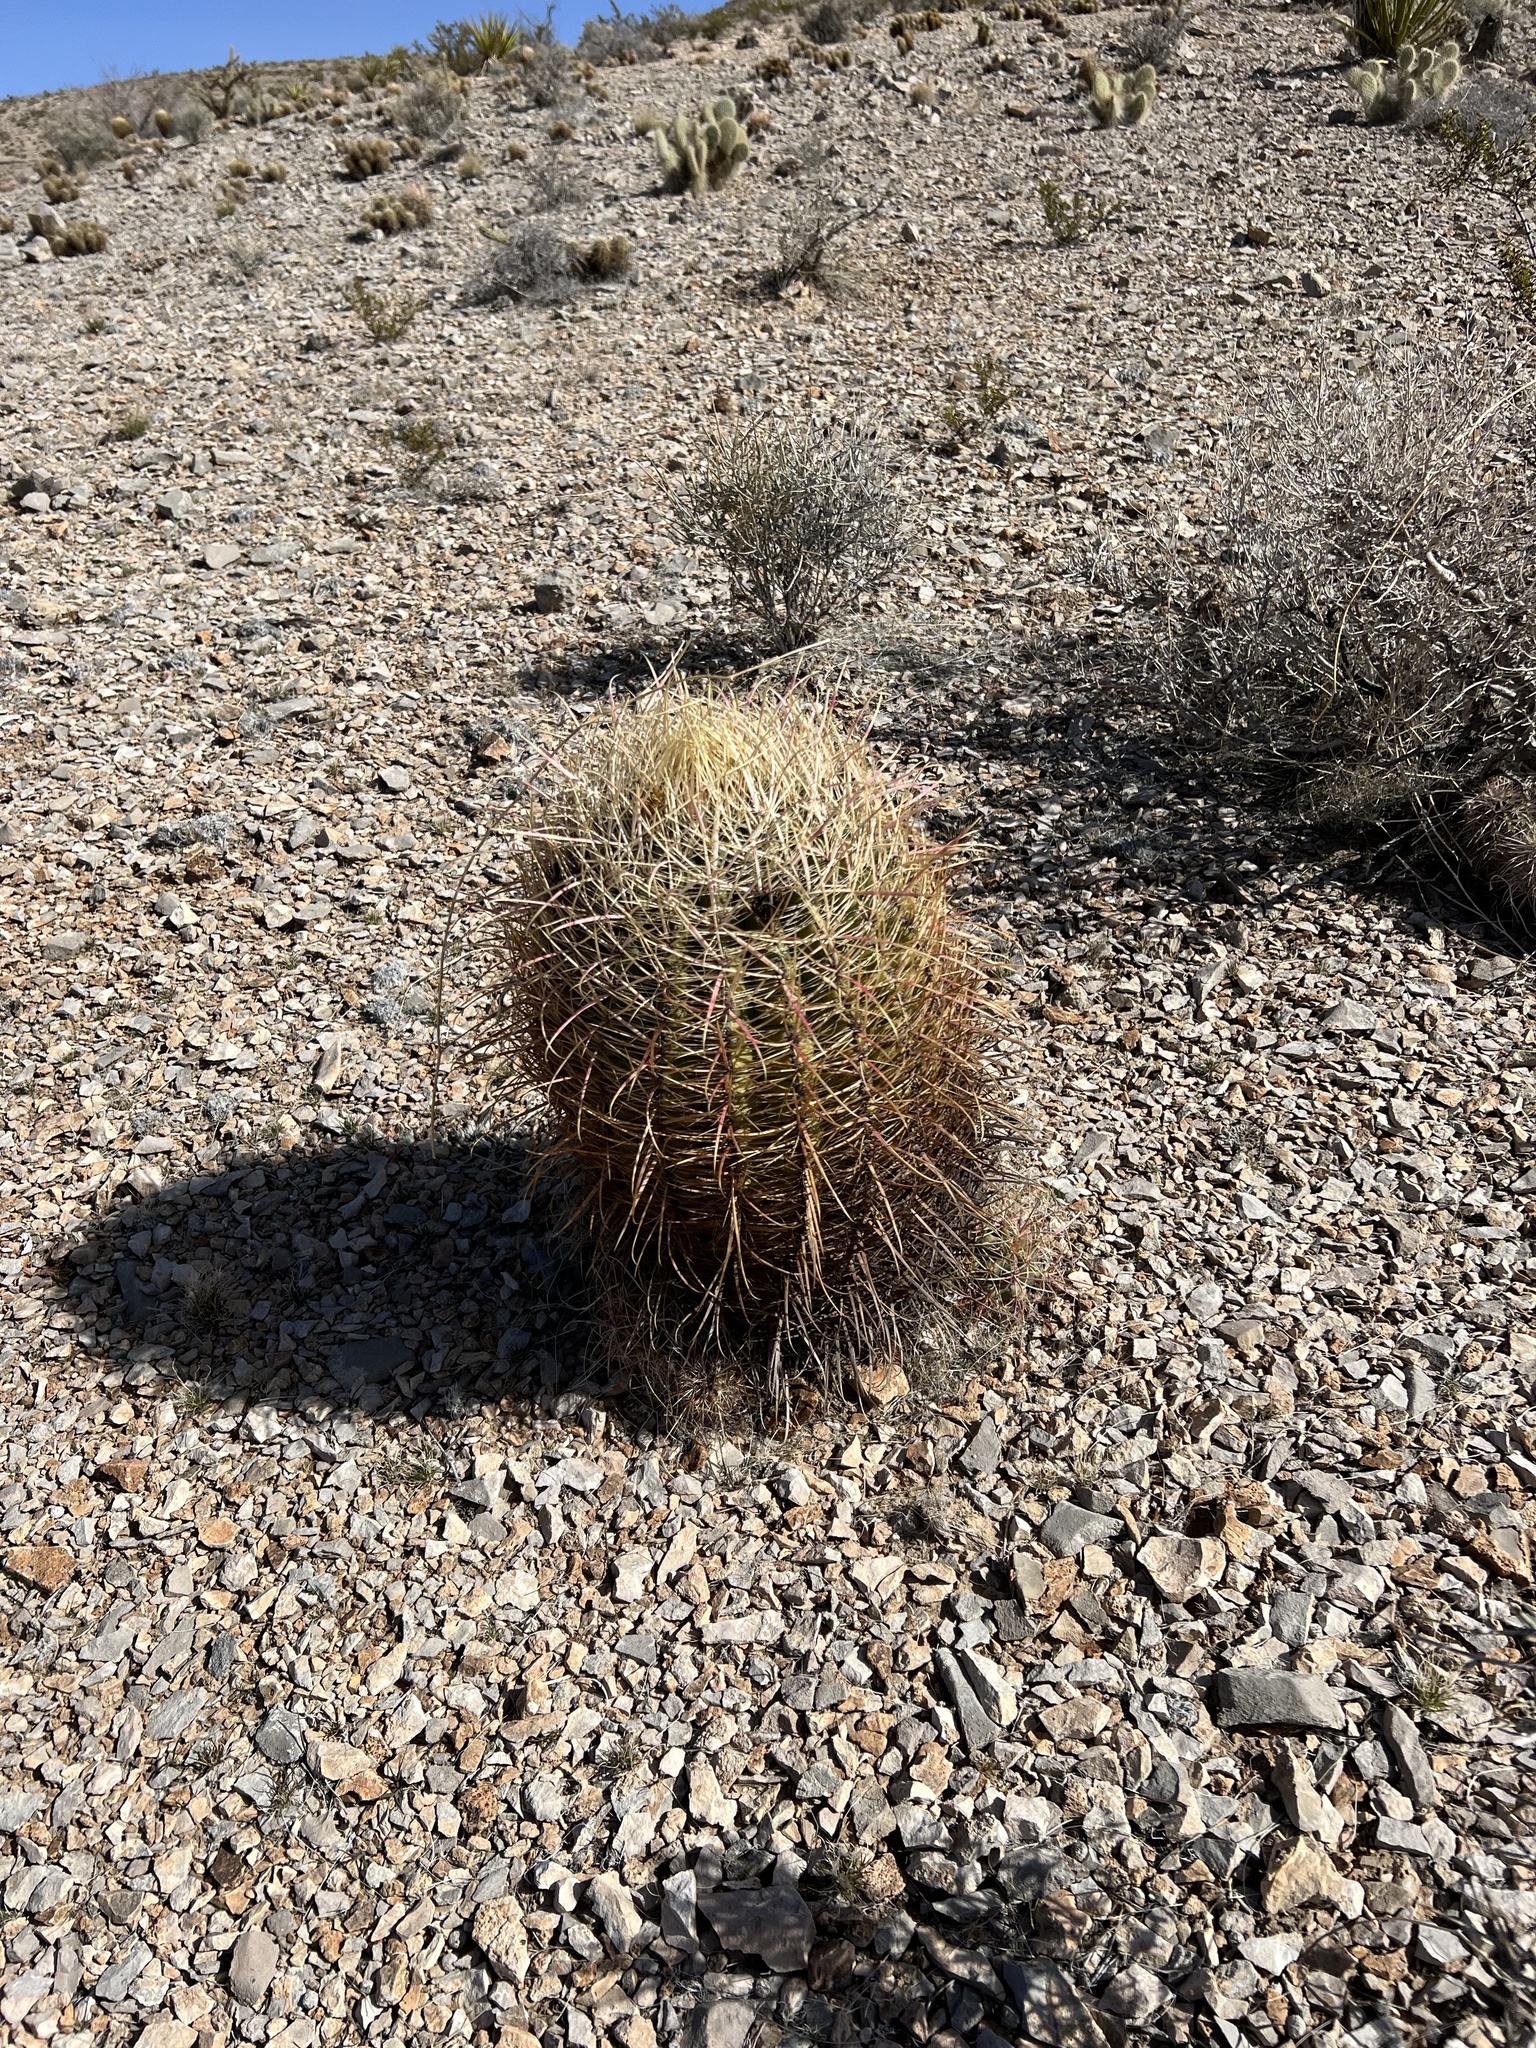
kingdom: Plantae
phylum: Tracheophyta
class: Magnoliopsida
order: Caryophyllales
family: Cactaceae
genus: Ferocactus
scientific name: Ferocactus cylindraceus
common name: California barrel cactus
